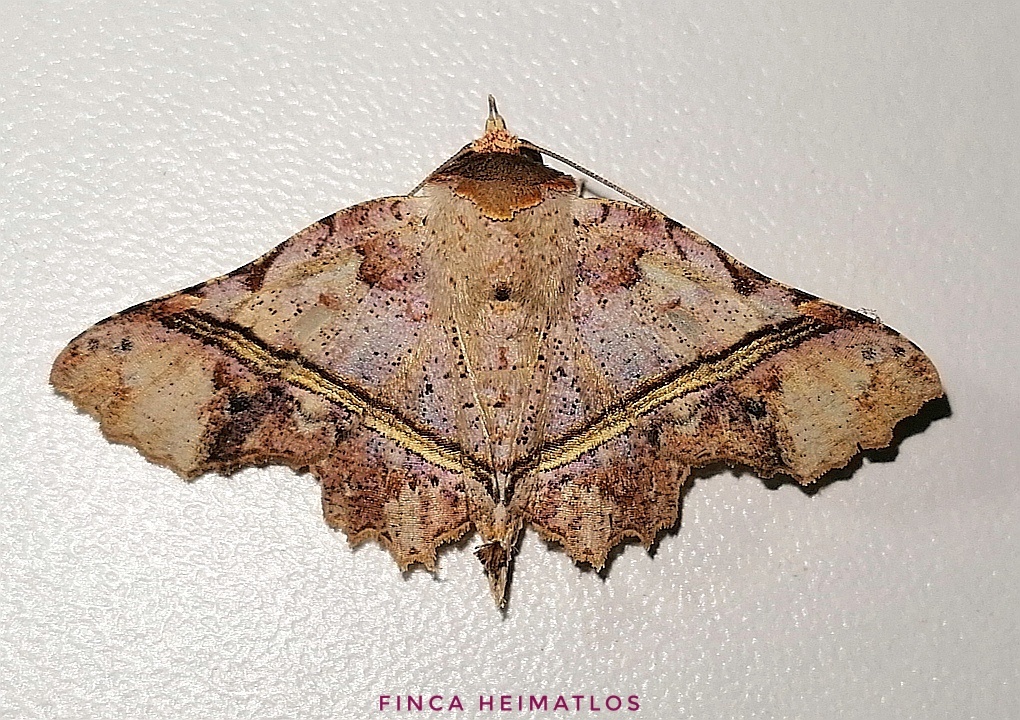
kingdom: Animalia
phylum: Arthropoda
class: Insecta
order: Lepidoptera
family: Erebidae
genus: Gonuris
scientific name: Gonuris flaminia
